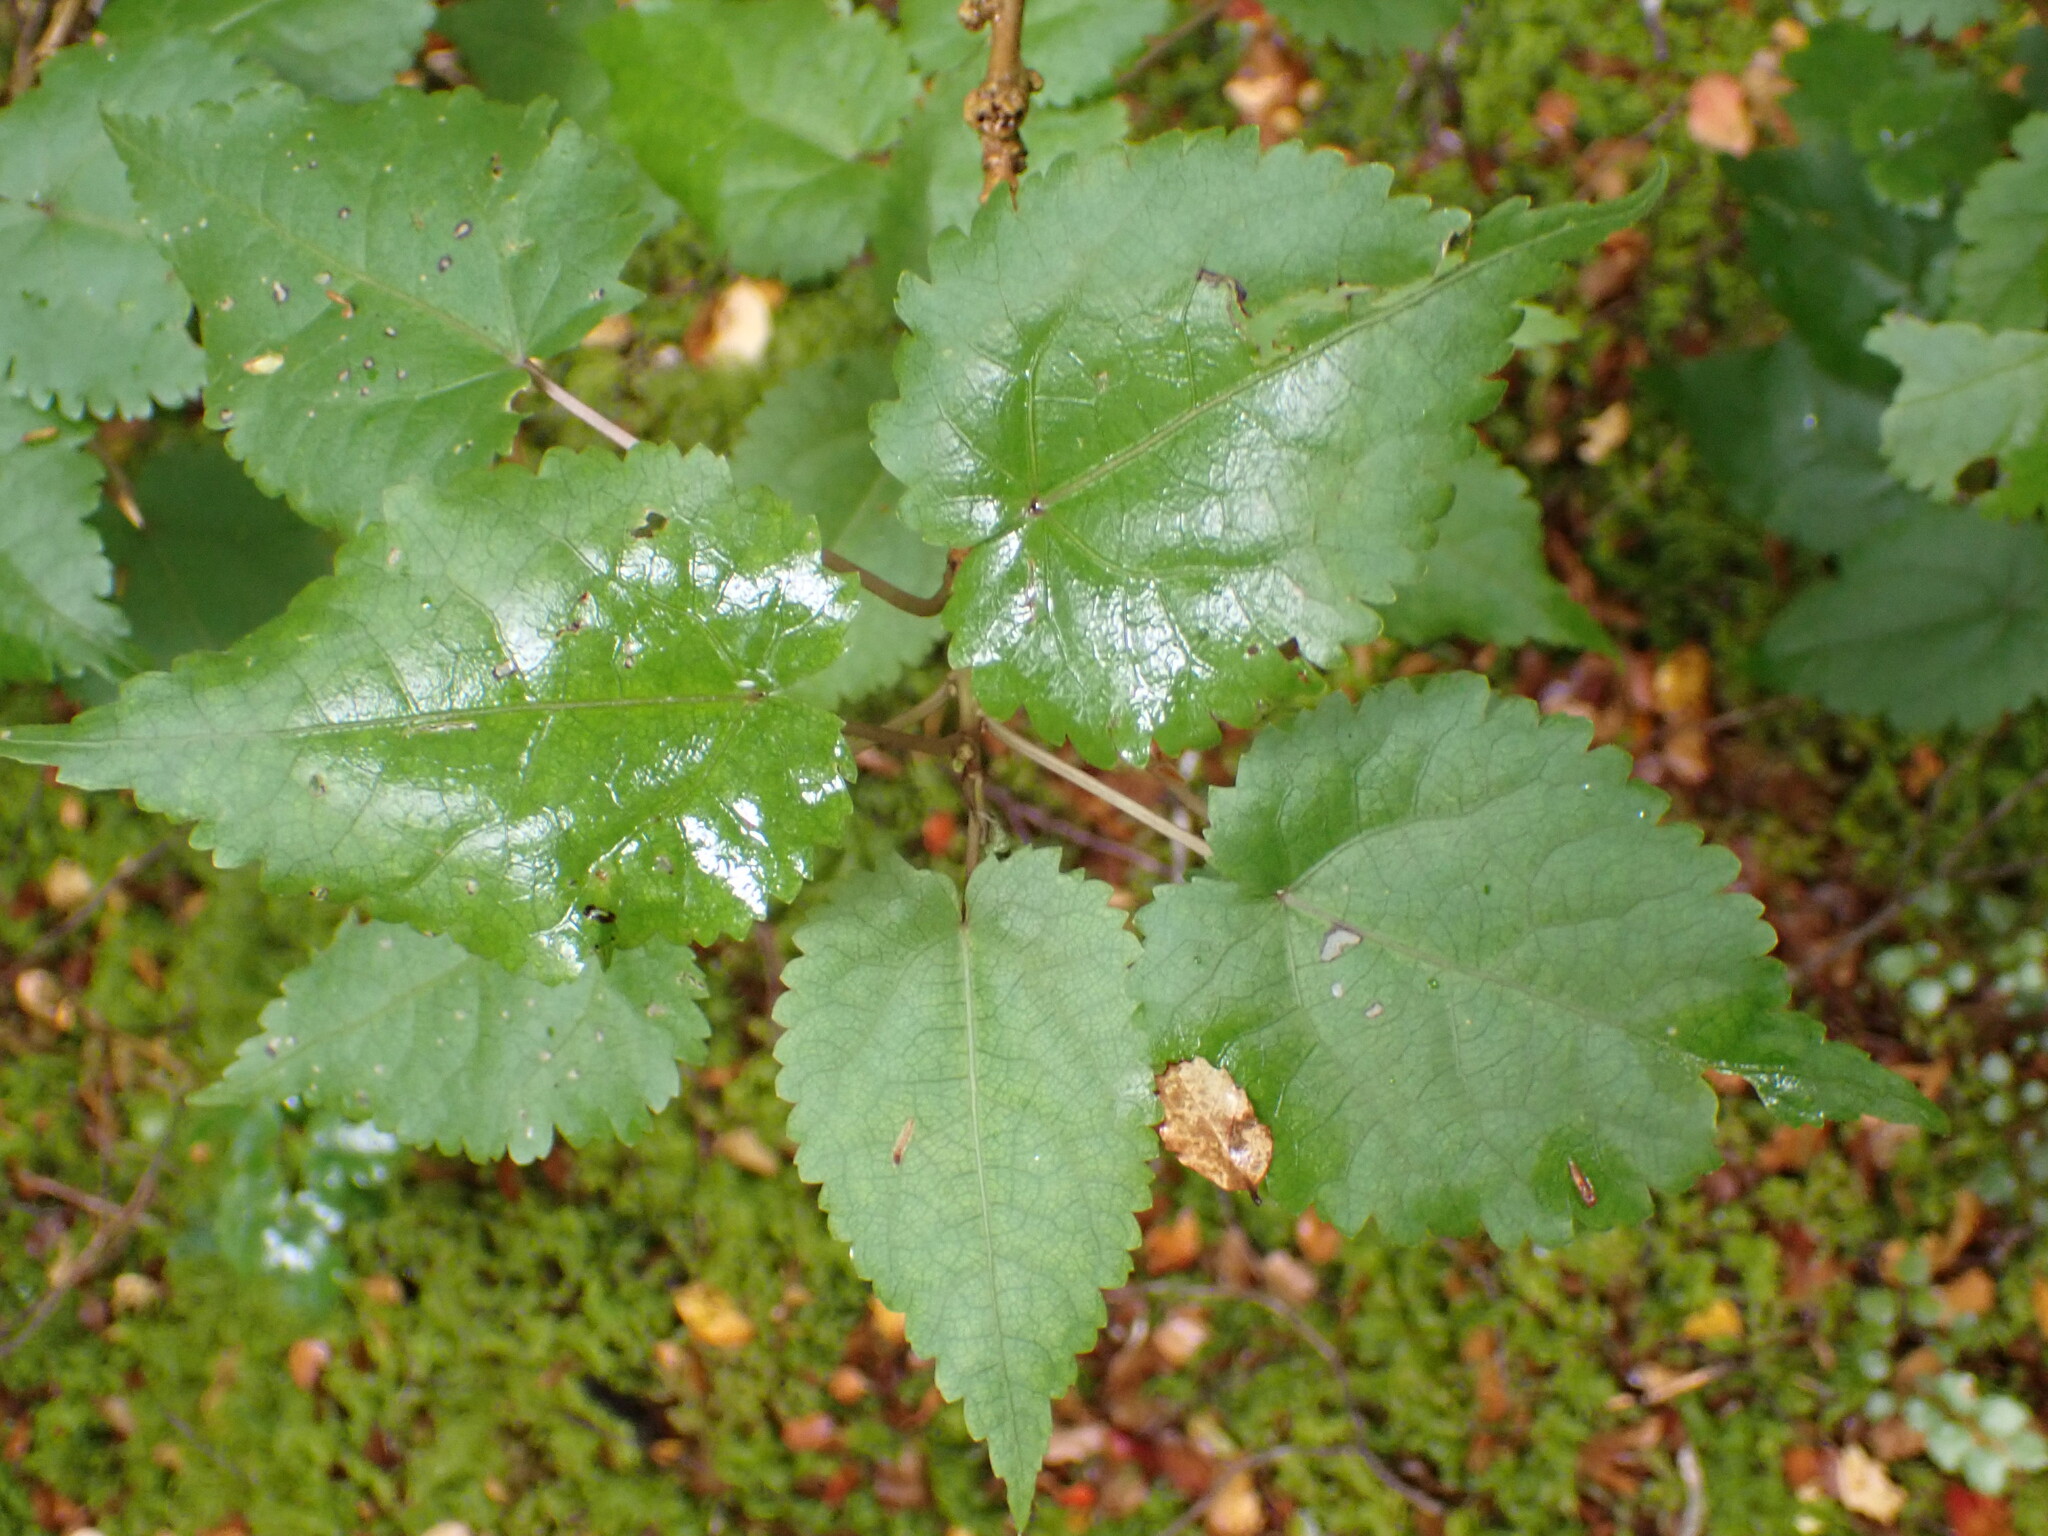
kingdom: Plantae
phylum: Tracheophyta
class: Magnoliopsida
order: Malvales
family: Malvaceae
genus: Hoheria
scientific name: Hoheria glabrata
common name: Mountain-ribbon
